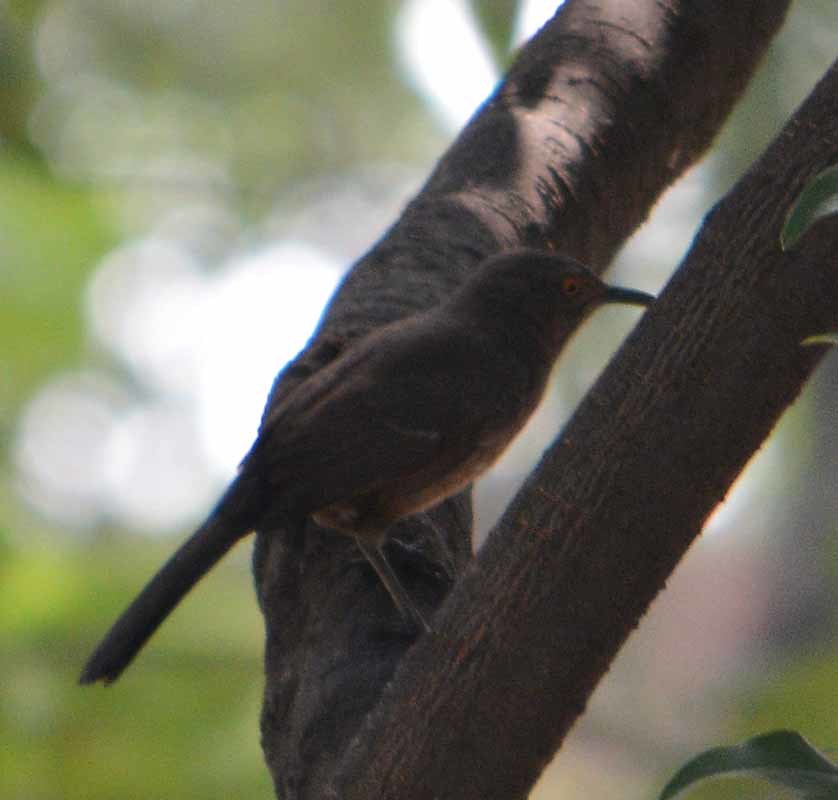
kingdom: Animalia
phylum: Chordata
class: Aves
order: Passeriformes
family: Mimidae
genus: Toxostoma
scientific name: Toxostoma curvirostre
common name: Curve-billed thrasher
